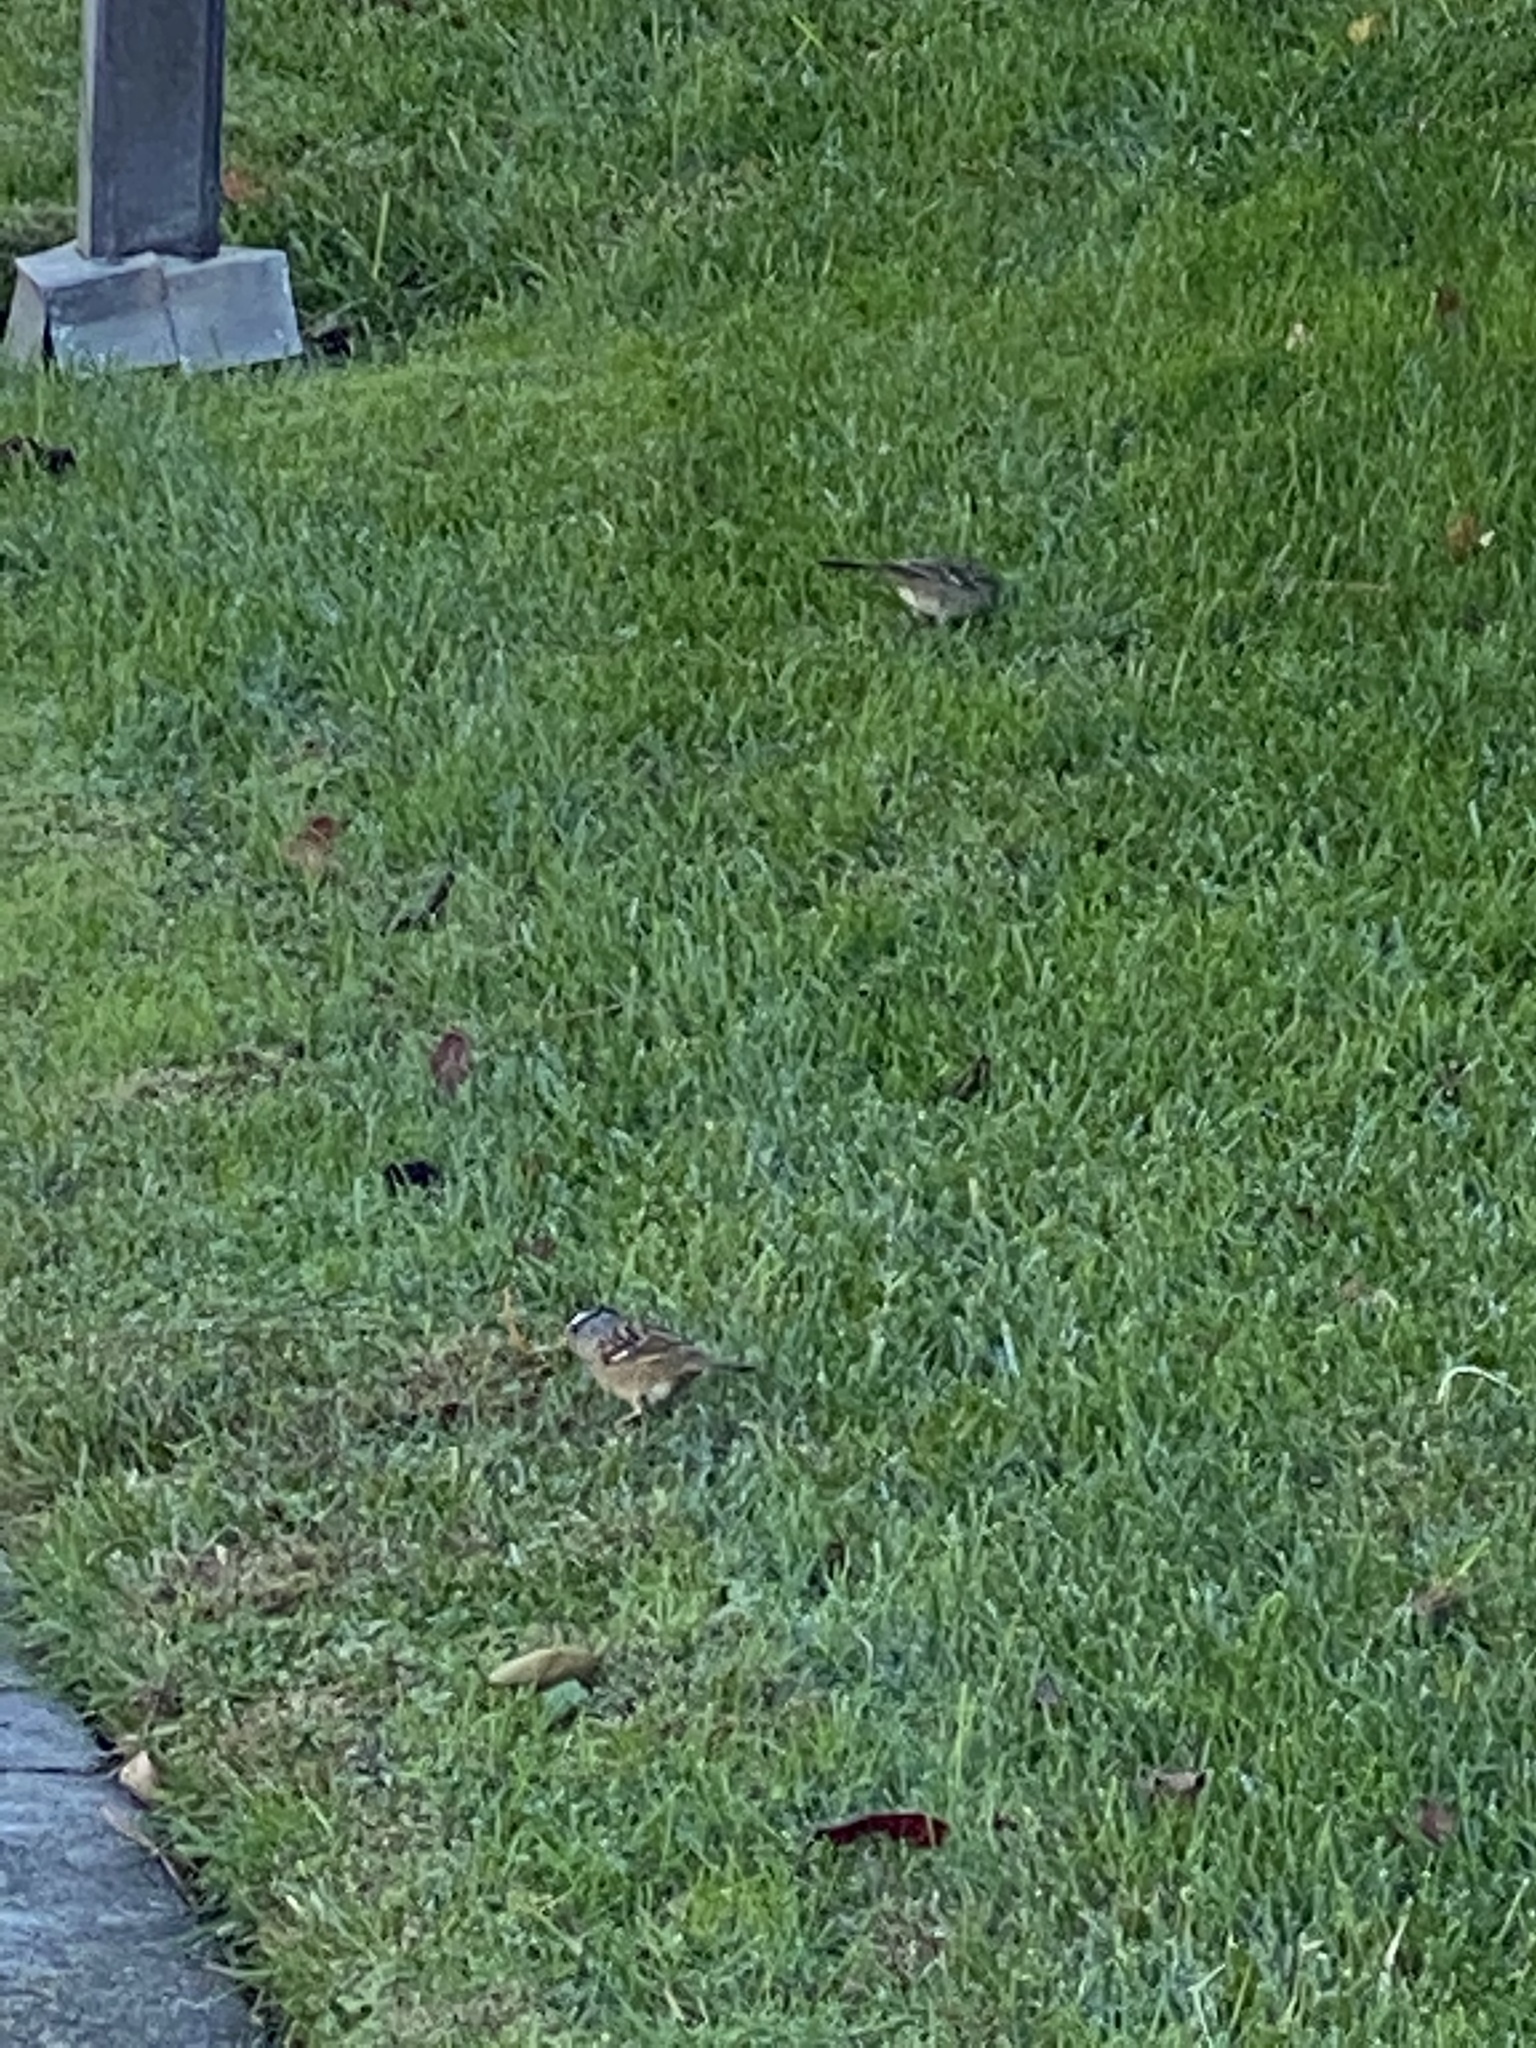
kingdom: Animalia
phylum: Chordata
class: Aves
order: Passeriformes
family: Passerellidae
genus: Zonotrichia
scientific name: Zonotrichia leucophrys
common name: White-crowned sparrow
